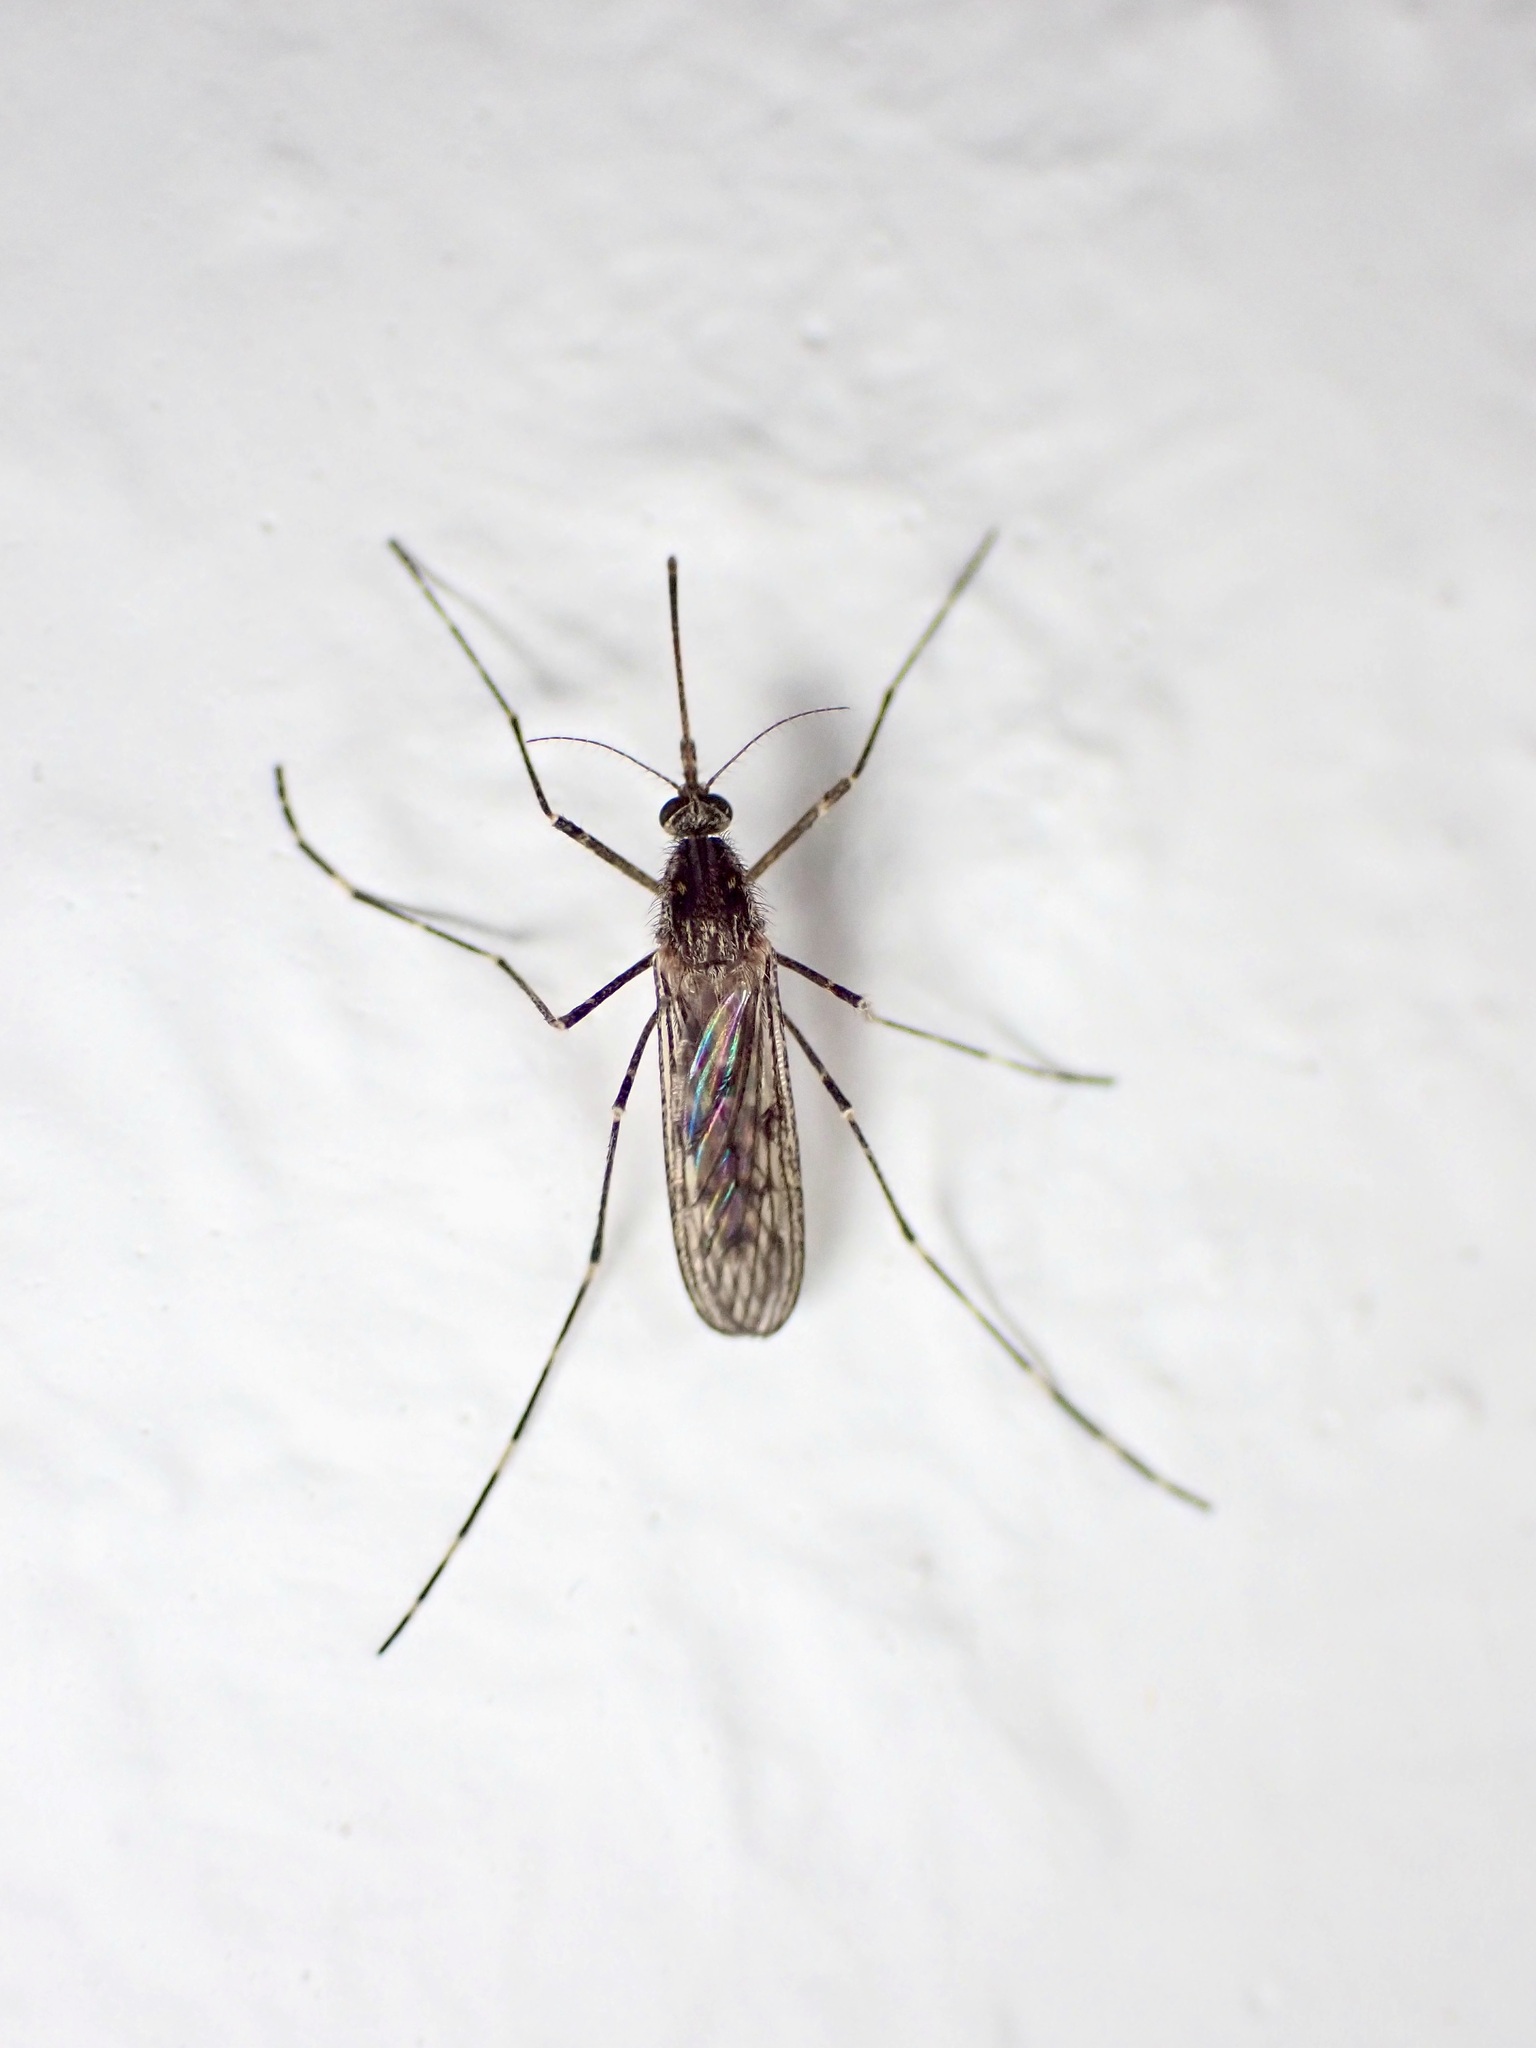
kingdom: Animalia
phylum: Arthropoda
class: Insecta
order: Diptera
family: Culicidae
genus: Culiseta
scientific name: Culiseta annulata
